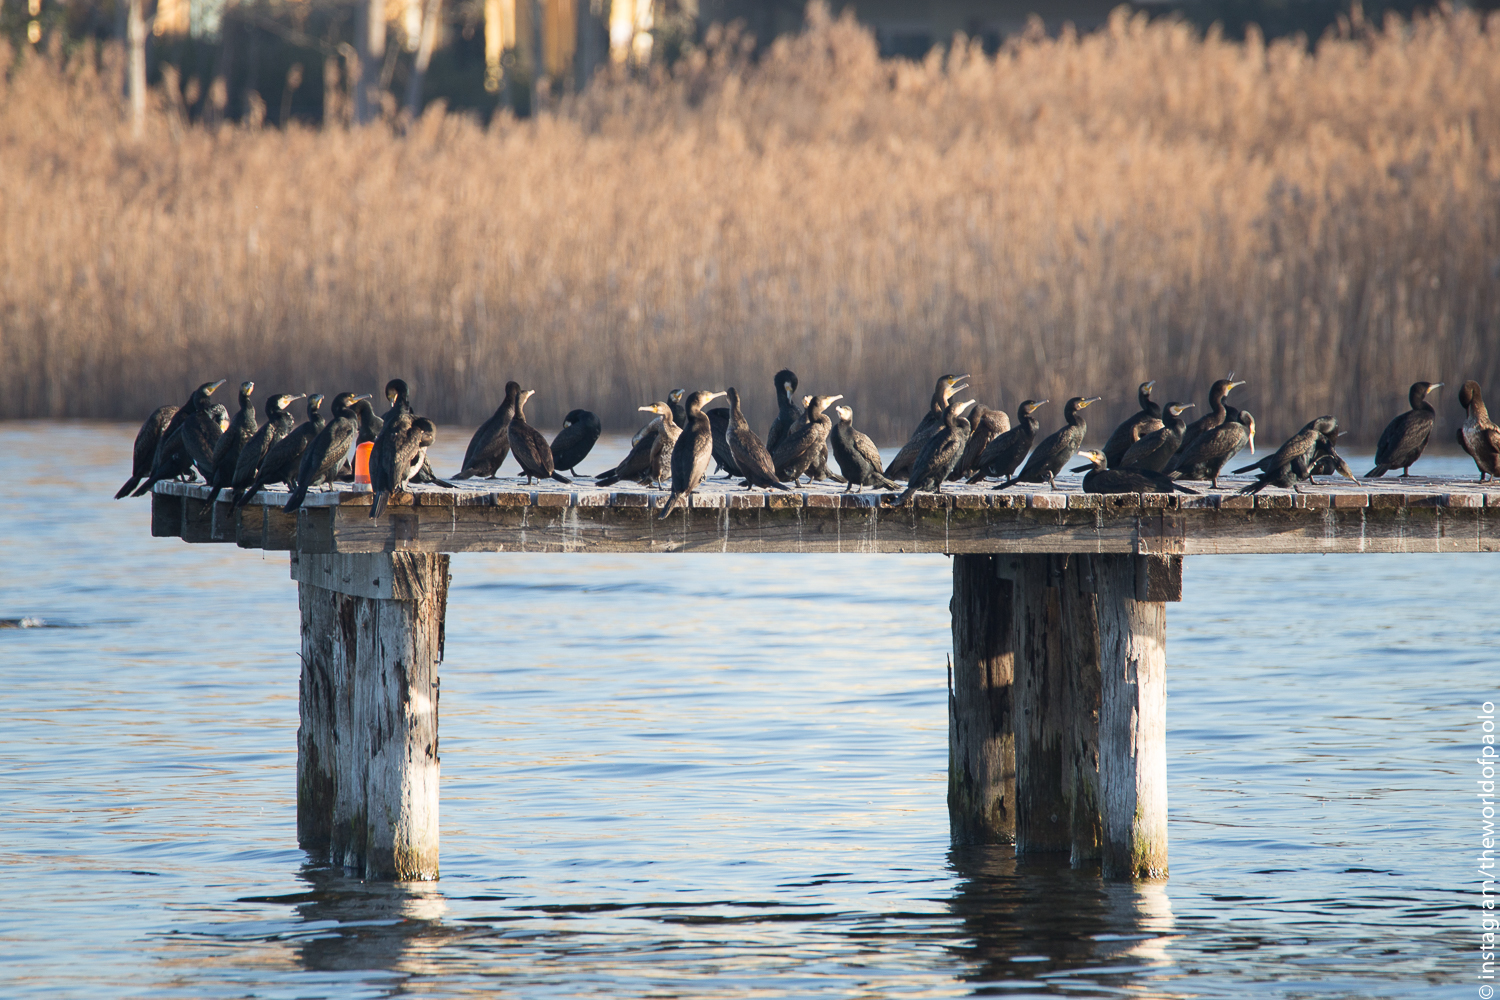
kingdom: Animalia
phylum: Chordata
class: Aves
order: Suliformes
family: Phalacrocoracidae
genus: Phalacrocorax
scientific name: Phalacrocorax carbo
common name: Great cormorant
